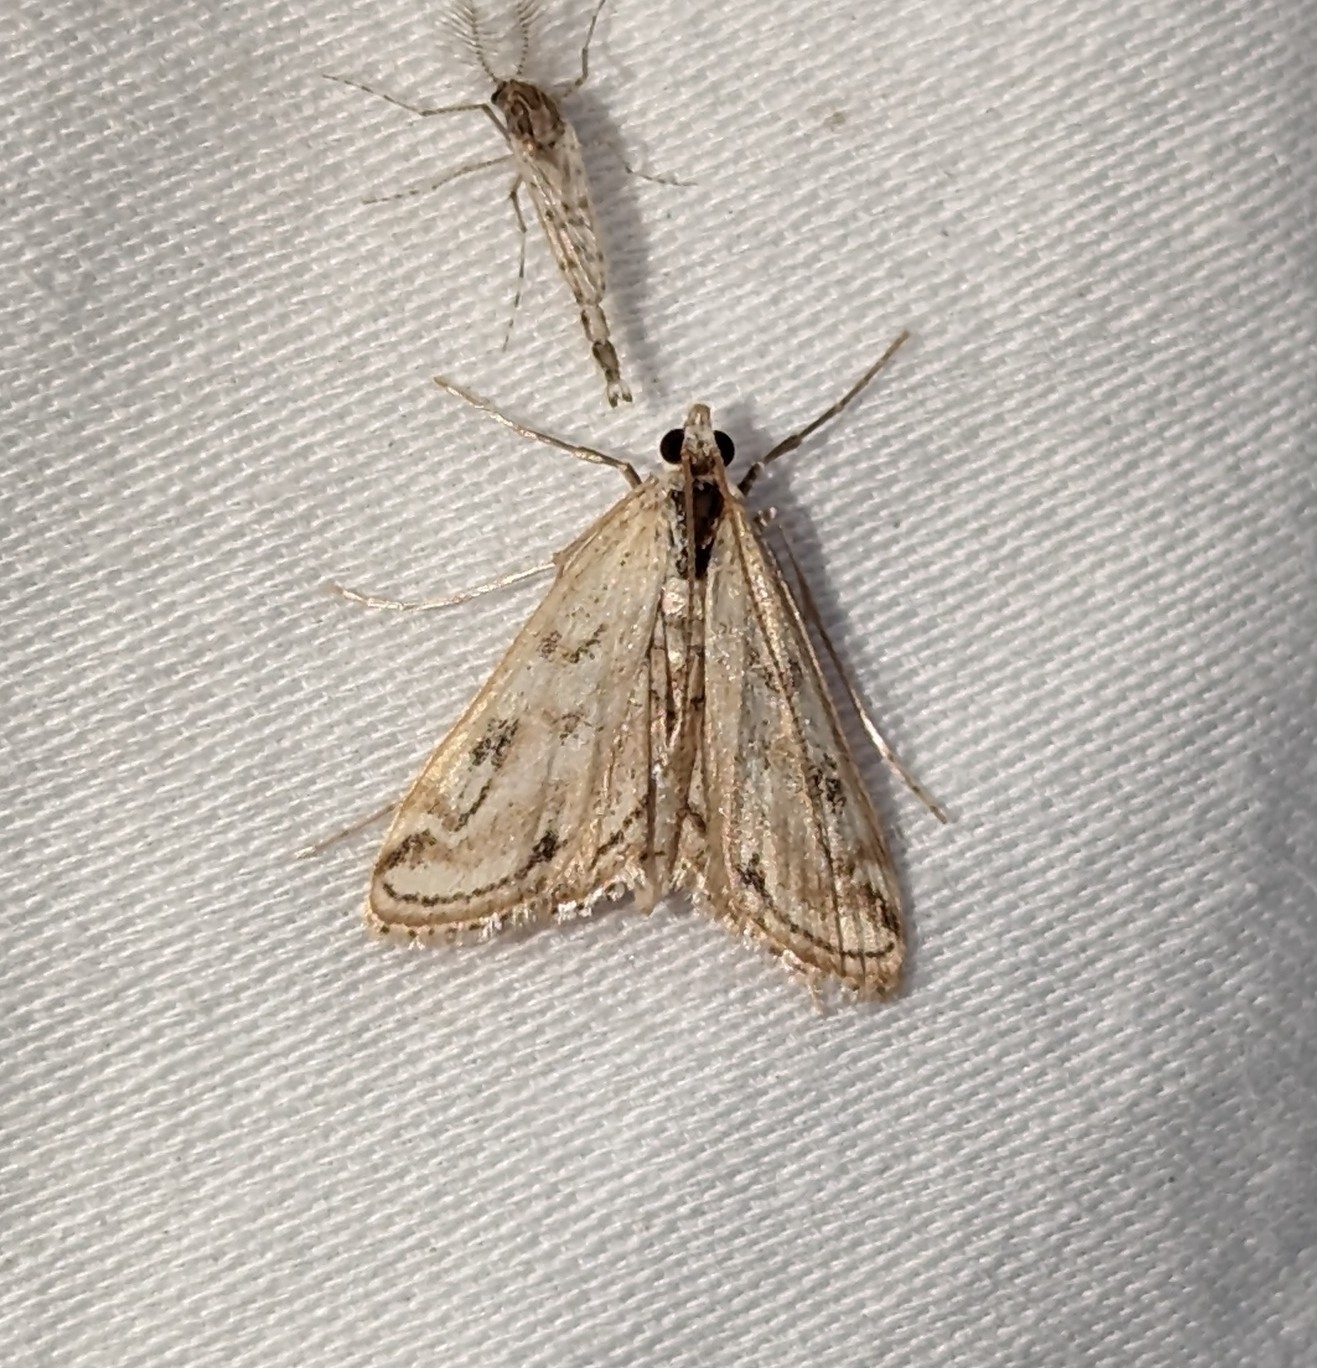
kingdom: Animalia
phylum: Arthropoda
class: Insecta
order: Lepidoptera
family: Crambidae
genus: Parapoynx
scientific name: Parapoynx allionealis
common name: Bladderwort casemaker
